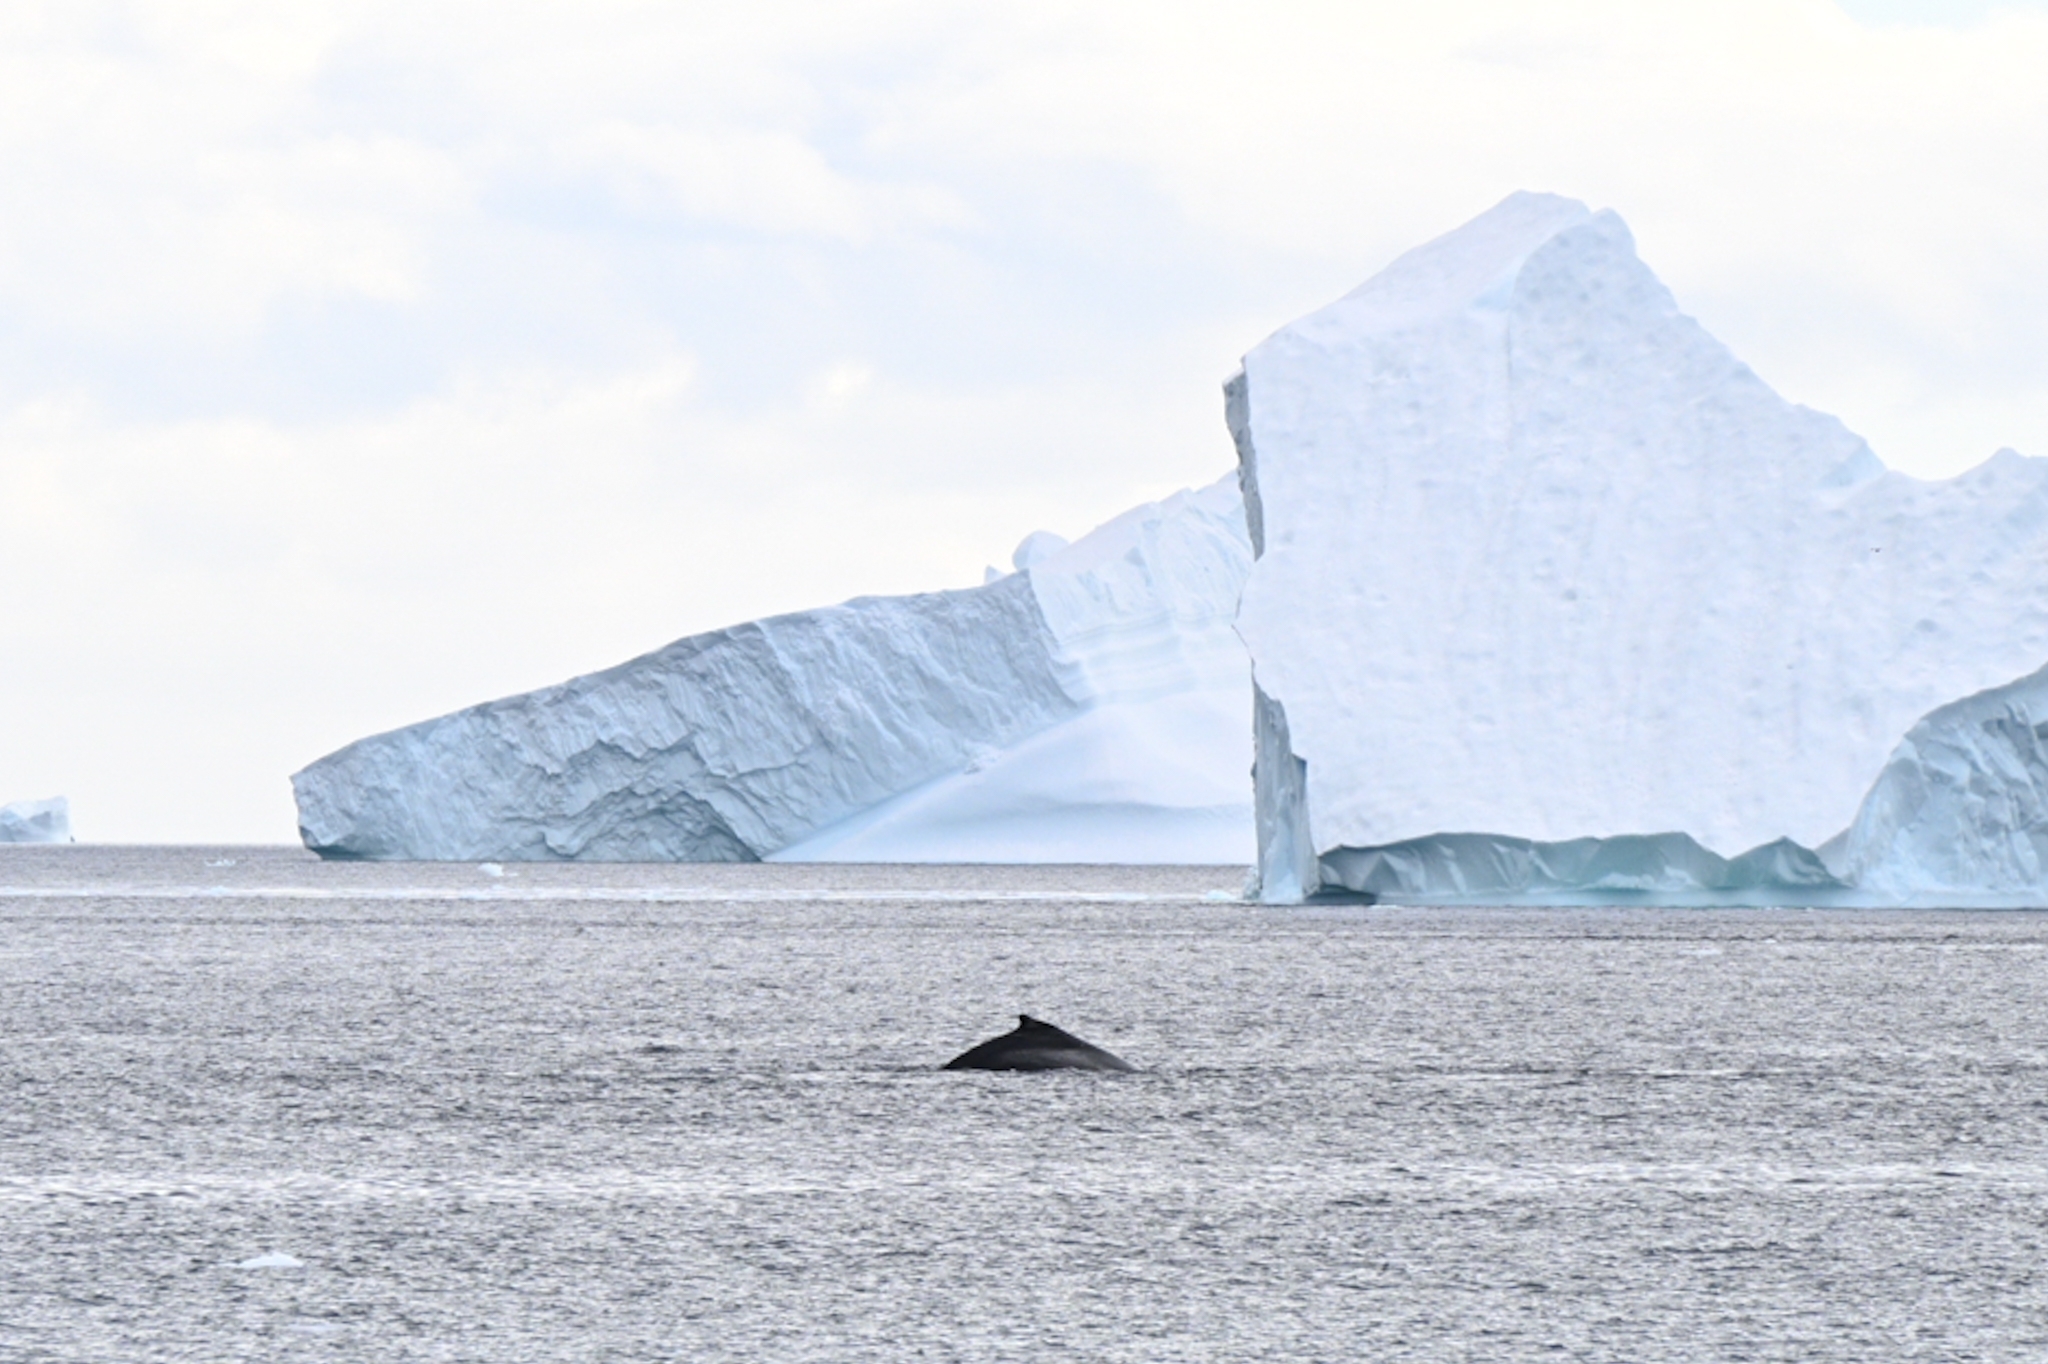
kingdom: Animalia
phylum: Chordata
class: Mammalia
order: Cetacea
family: Balaenopteridae
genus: Megaptera
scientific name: Megaptera novaeangliae
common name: Humpback whale
